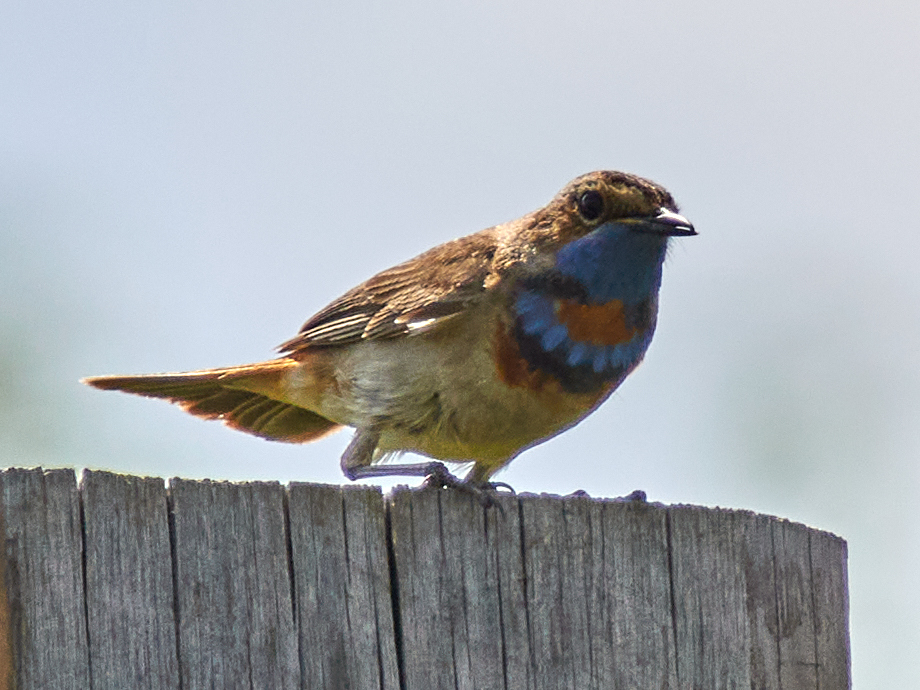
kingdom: Animalia
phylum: Chordata
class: Aves
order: Passeriformes
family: Muscicapidae
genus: Luscinia
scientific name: Luscinia svecica
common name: Bluethroat
